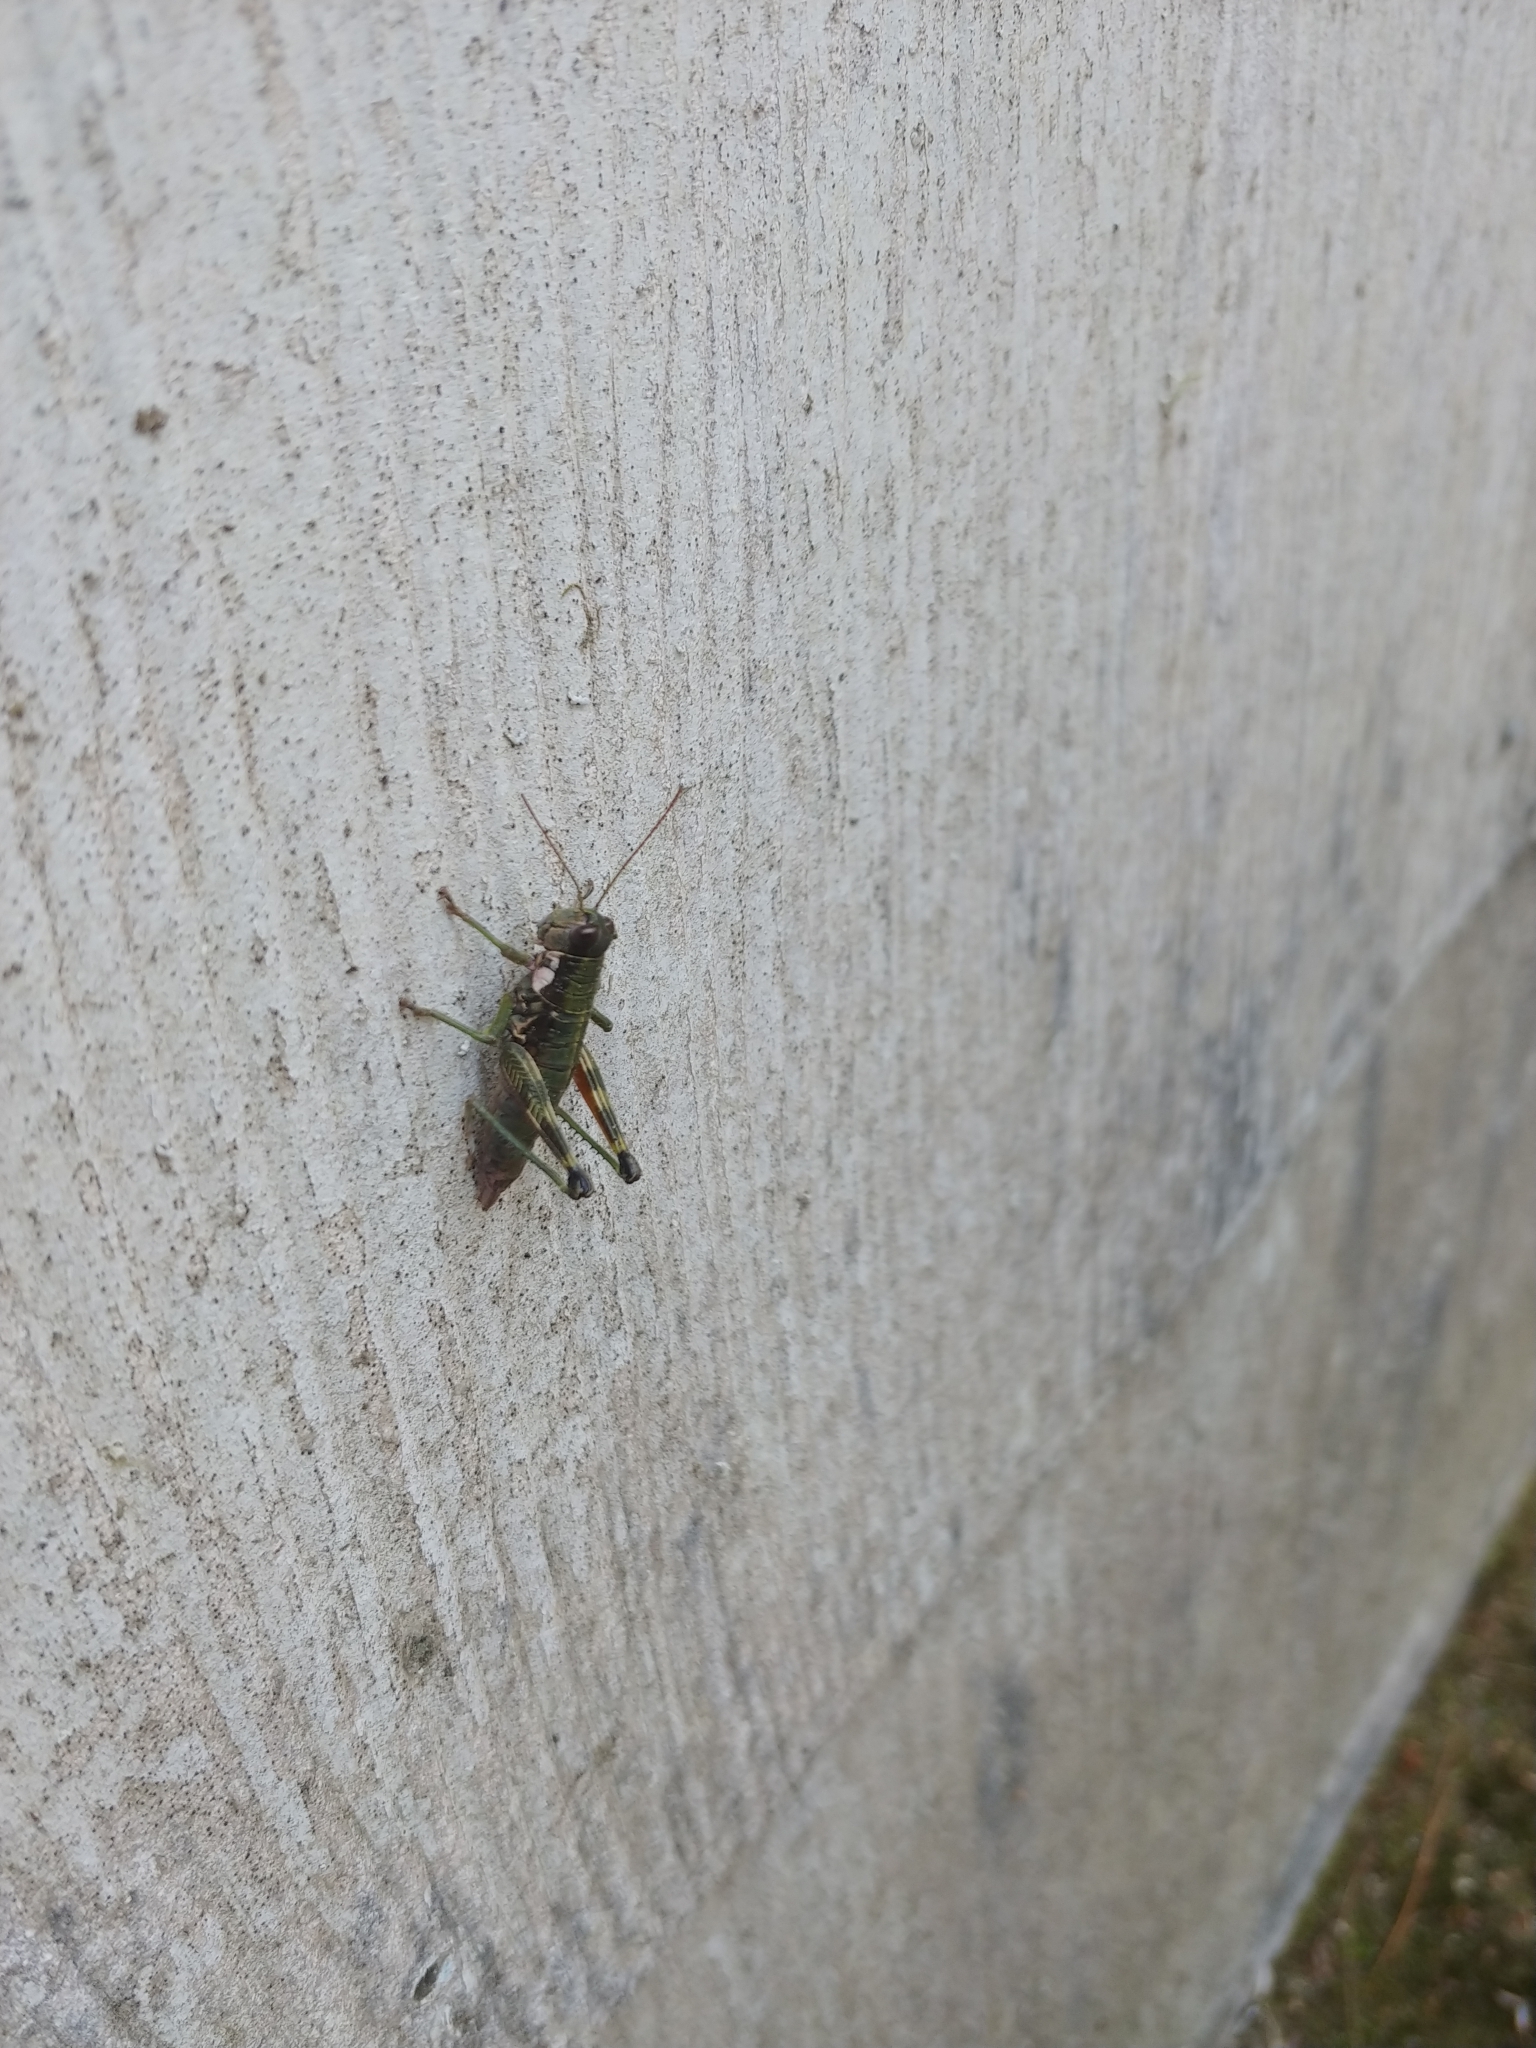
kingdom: Animalia
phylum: Arthropoda
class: Insecta
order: Orthoptera
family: Acrididae
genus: Booneacris
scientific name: Booneacris glacialis
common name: Wingless mountain grasshopper
